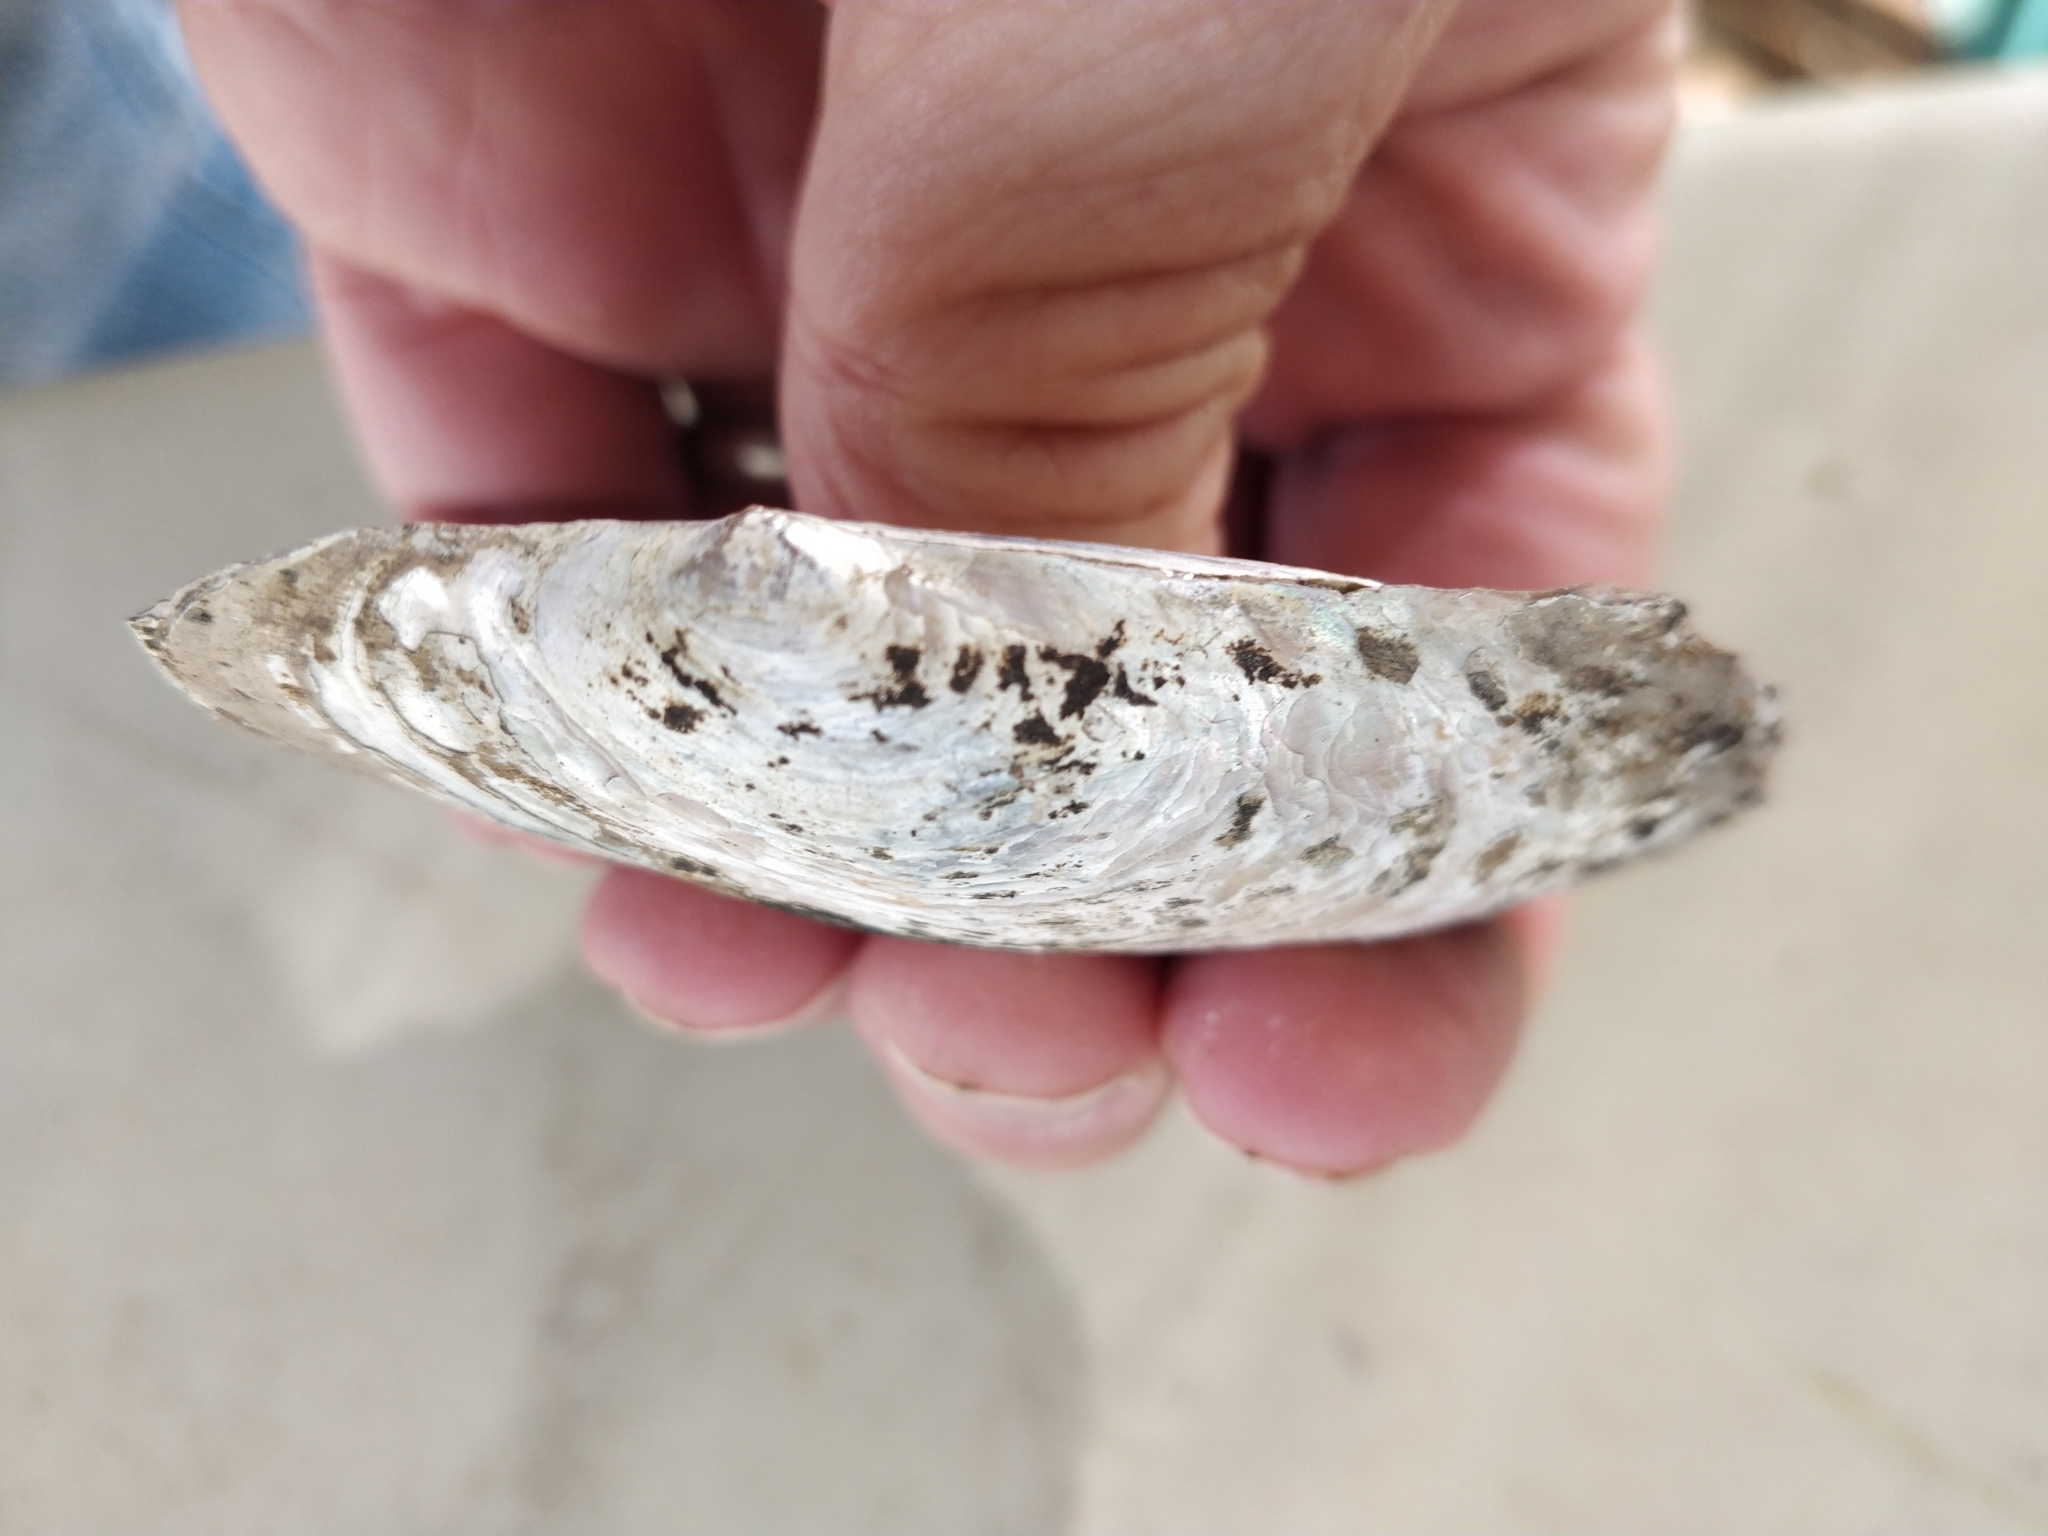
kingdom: Animalia
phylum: Mollusca
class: Bivalvia
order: Unionida
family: Unionidae
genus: Potamilus
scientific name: Potamilus ohiensis
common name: Pink papershell
